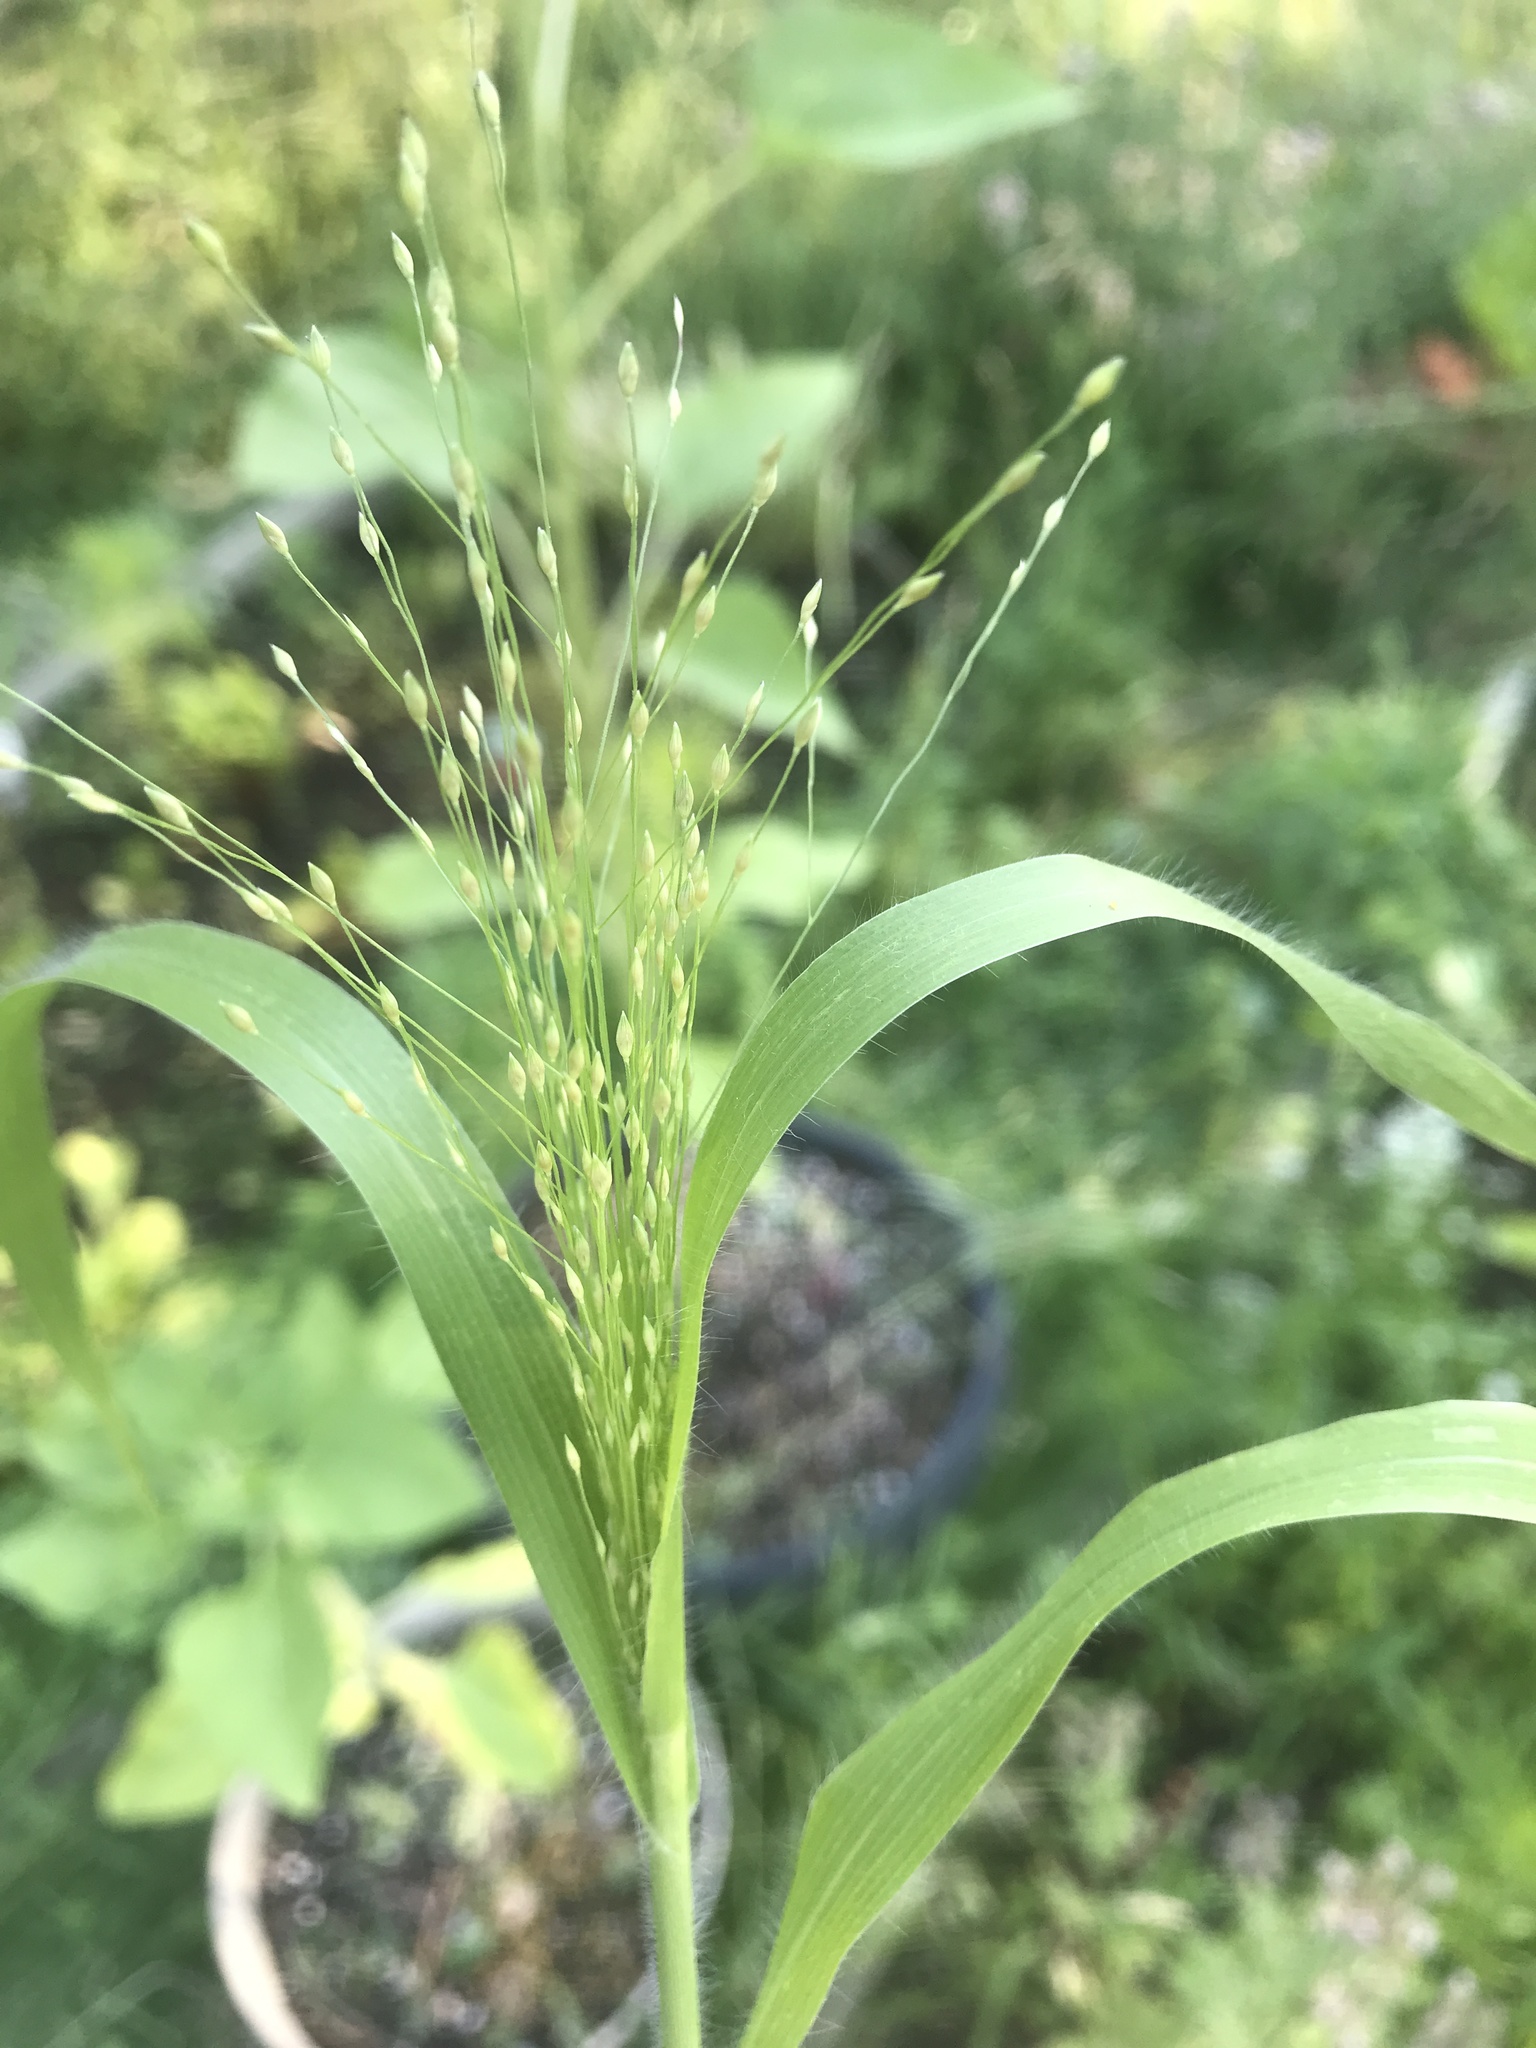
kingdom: Plantae
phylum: Tracheophyta
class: Liliopsida
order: Poales
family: Poaceae
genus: Panicum
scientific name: Panicum capillare
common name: Witch-grass
